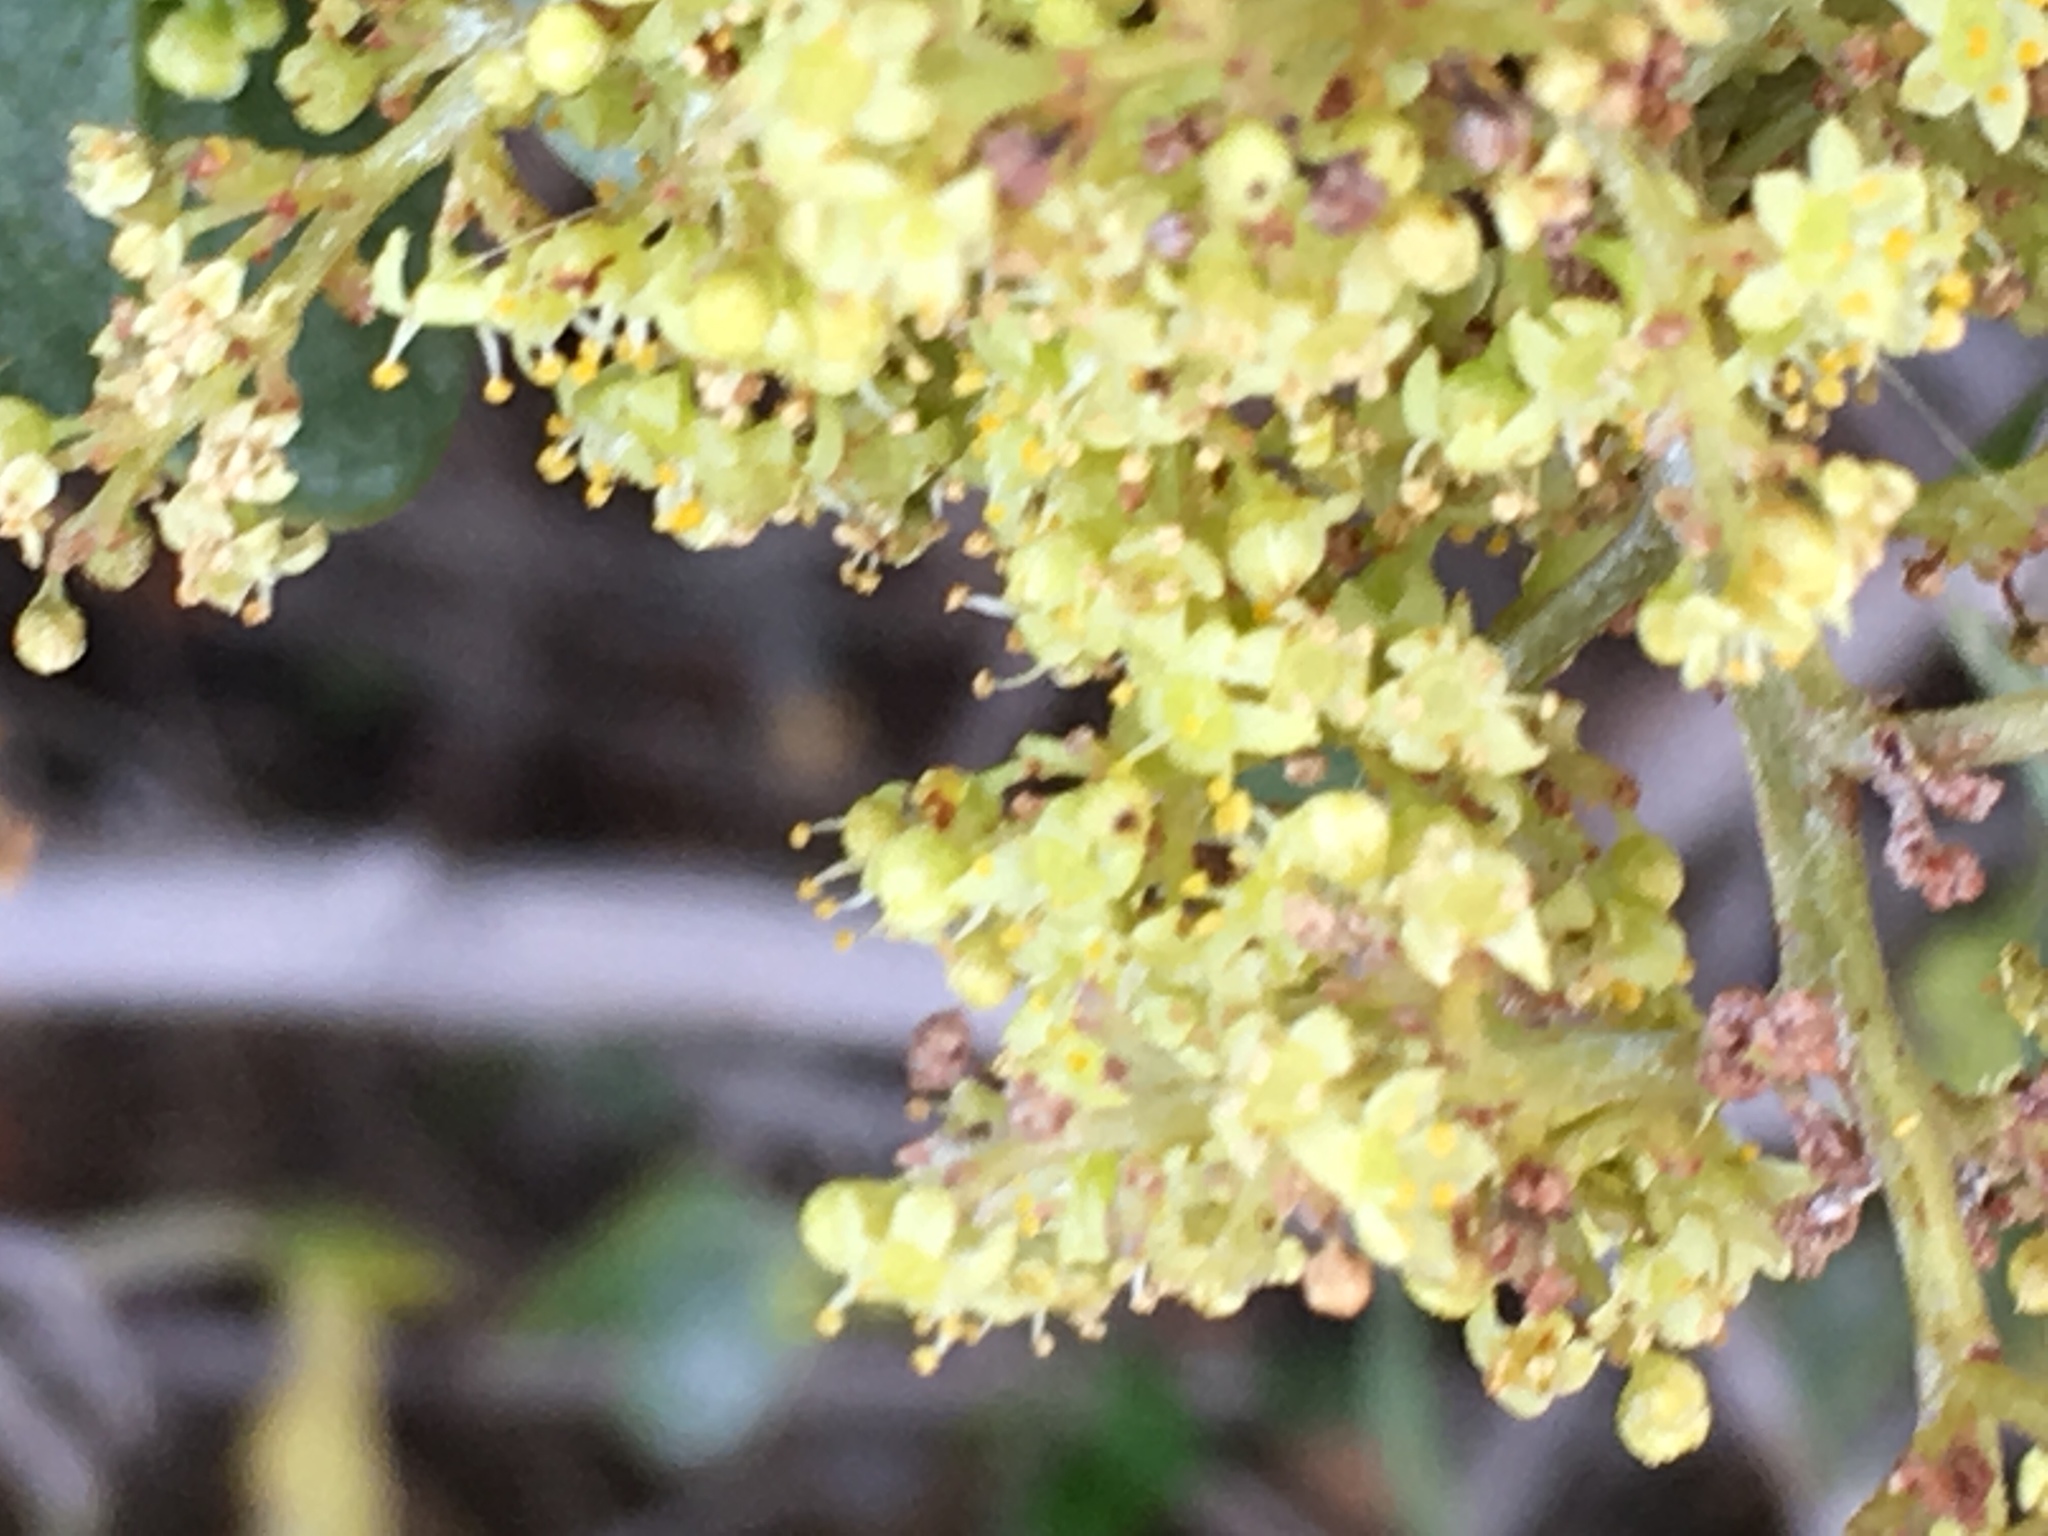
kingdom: Plantae
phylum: Tracheophyta
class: Magnoliopsida
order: Sapindales
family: Anacardiaceae
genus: Searsia
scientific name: Searsia glauca
